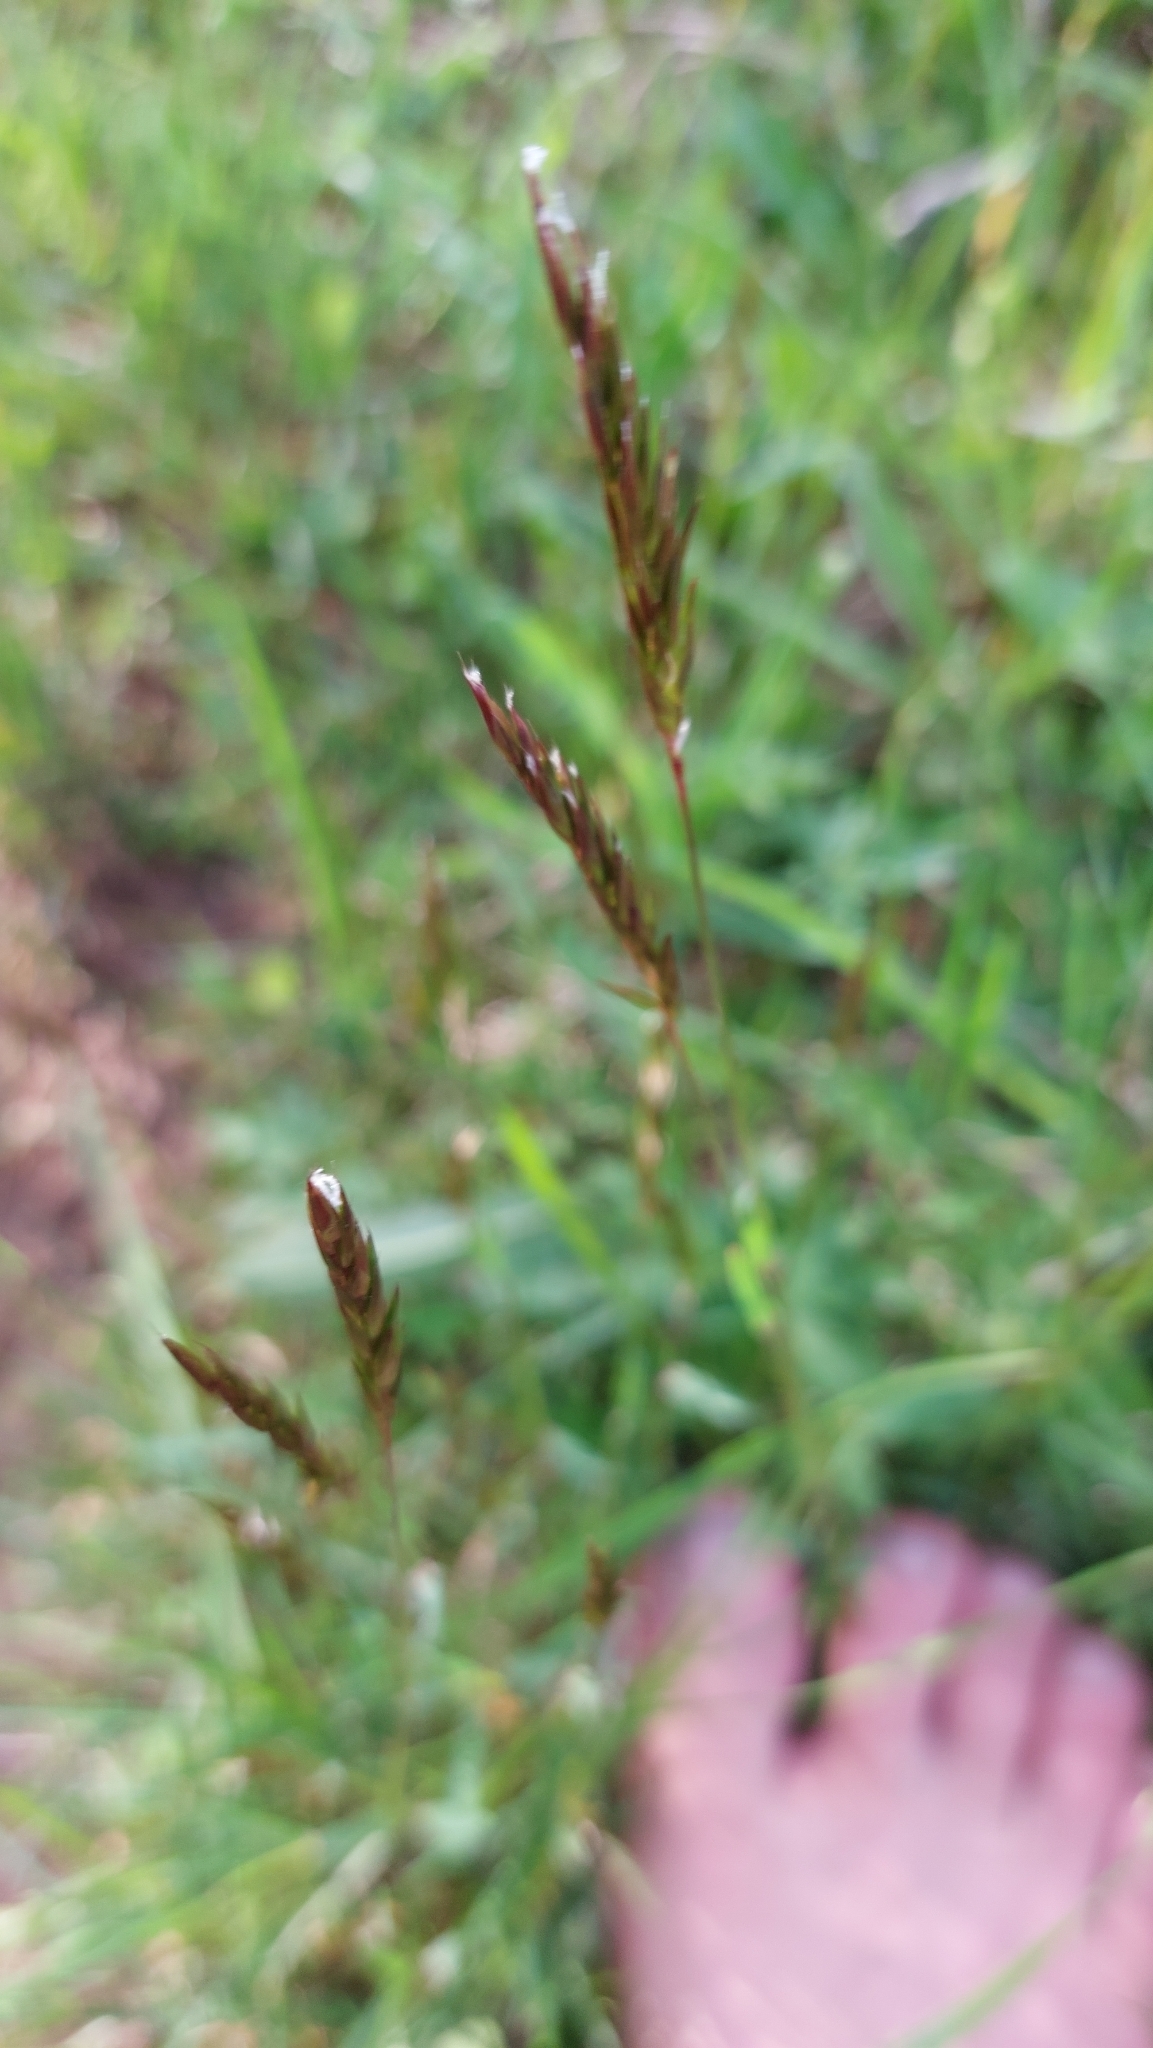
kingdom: Plantae
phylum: Tracheophyta
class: Liliopsida
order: Poales
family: Poaceae
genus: Anthoxanthum
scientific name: Anthoxanthum odoratum
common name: Sweet vernalgrass
